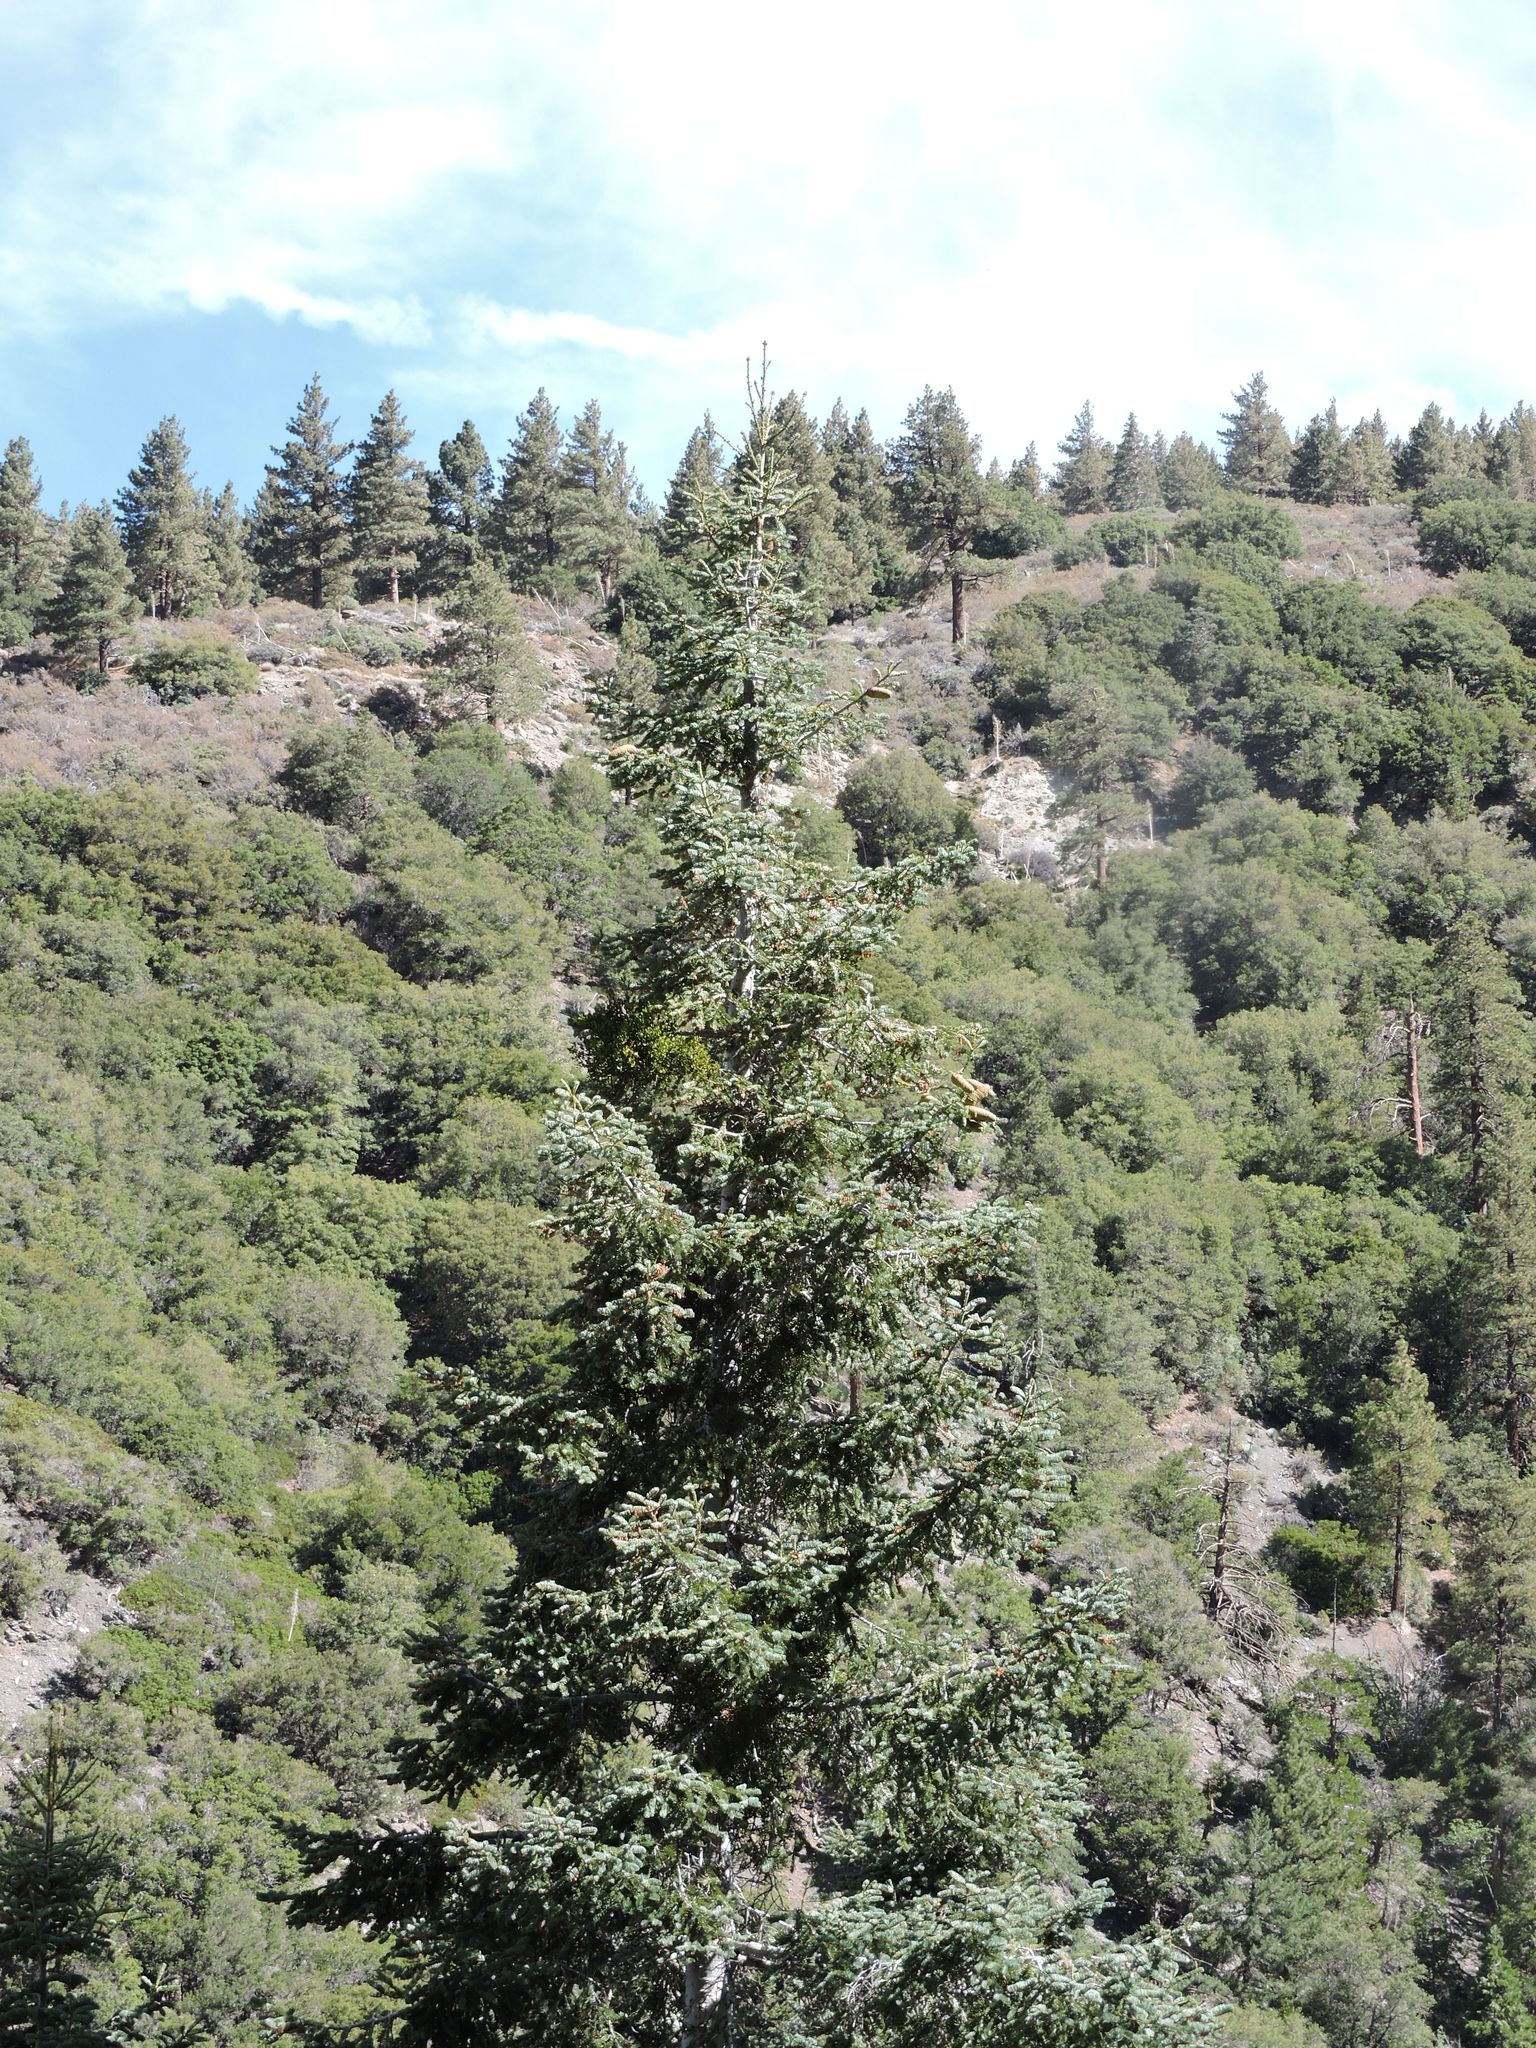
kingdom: Plantae
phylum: Tracheophyta
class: Pinopsida
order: Pinales
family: Pinaceae
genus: Abies
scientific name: Abies concolor
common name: Colorado fir
